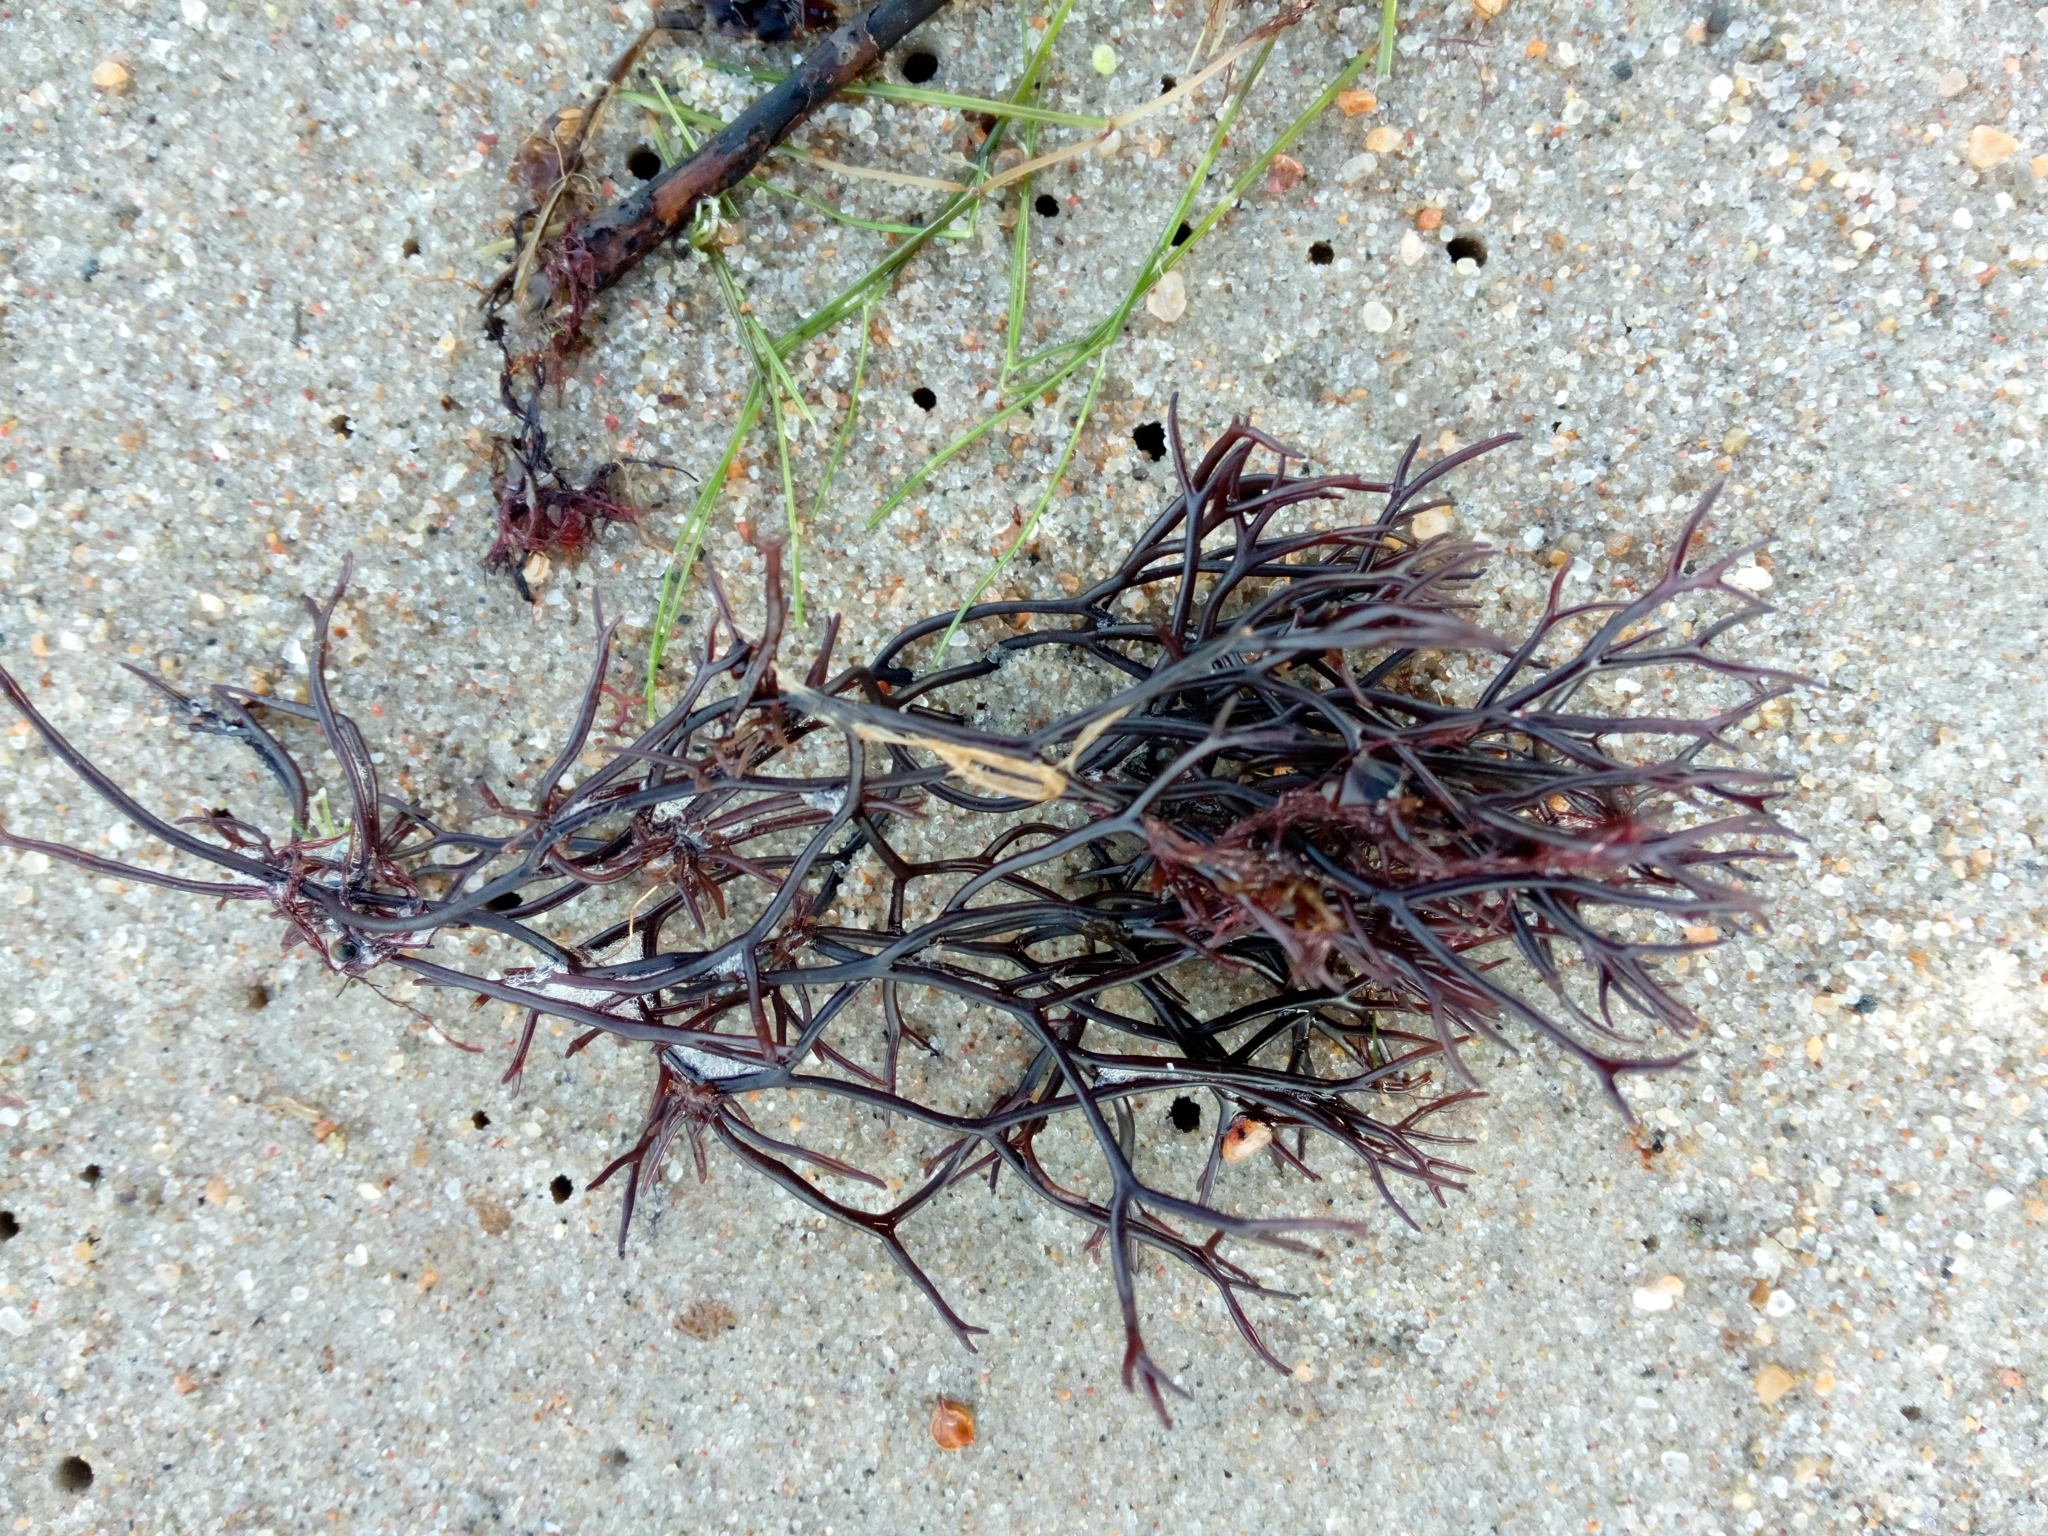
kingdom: Plantae
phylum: Rhodophyta
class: Florideophyceae
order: Gigartinales
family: Furcellariaceae
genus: Furcellaria
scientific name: Furcellaria lumbricalis
